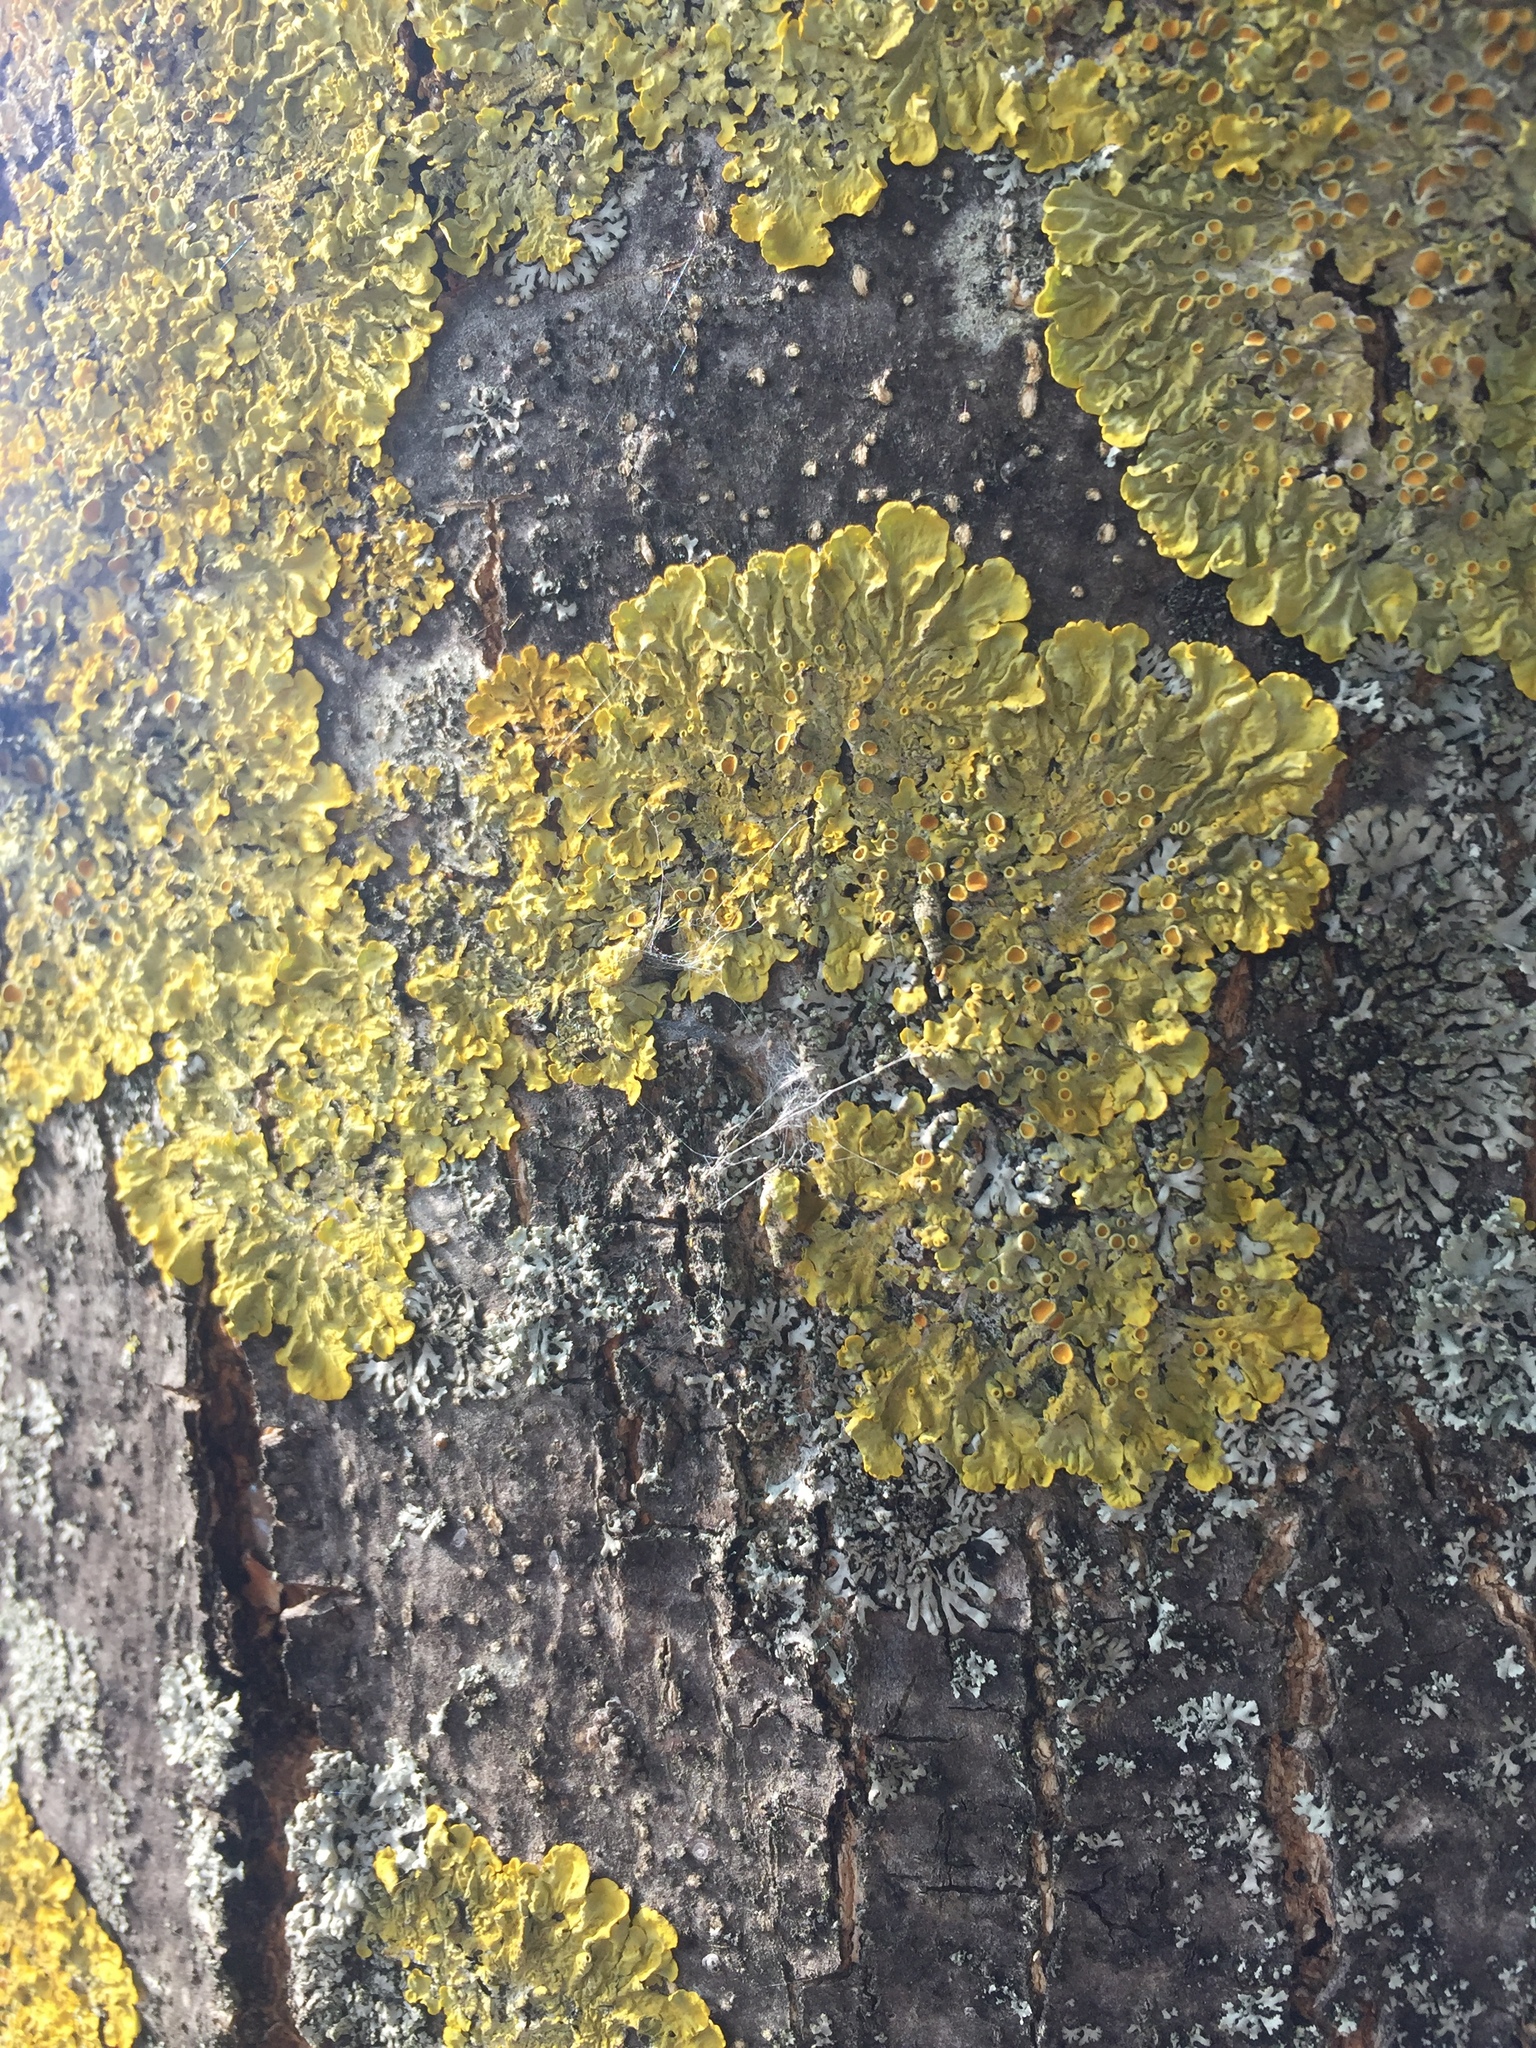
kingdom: Fungi
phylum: Ascomycota
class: Lecanoromycetes
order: Teloschistales
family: Teloschistaceae
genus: Xanthoria
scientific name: Xanthoria parietina
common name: Common orange lichen
